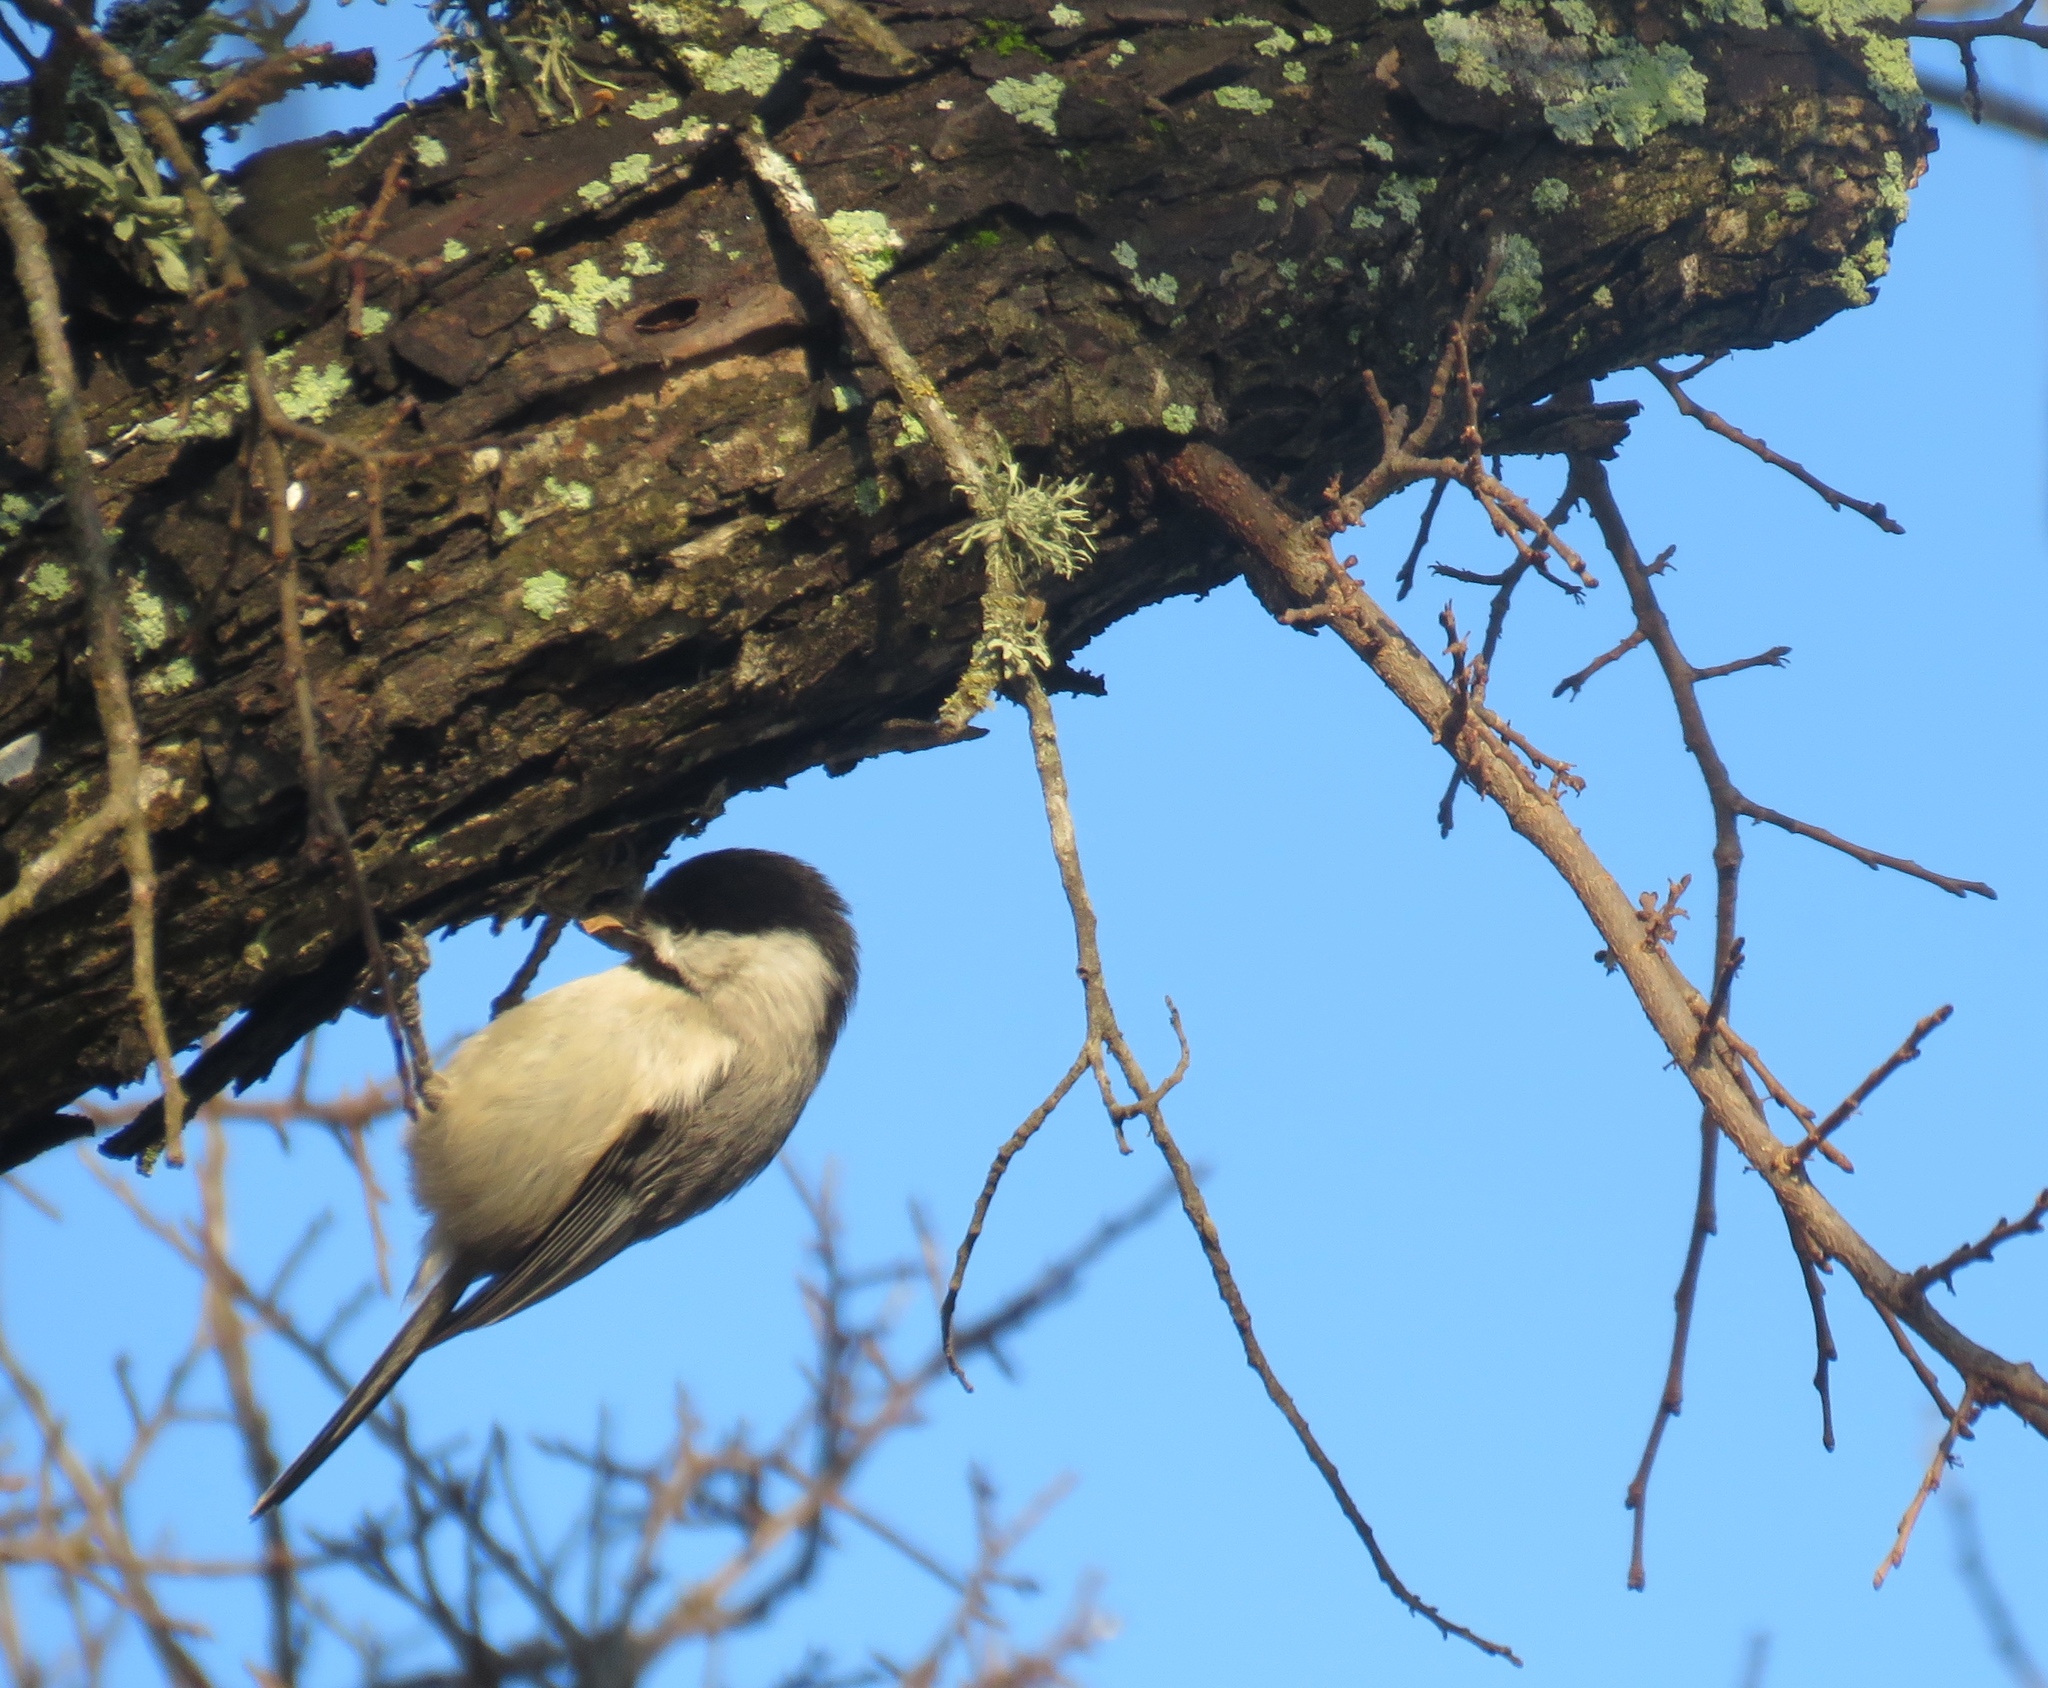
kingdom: Animalia
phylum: Chordata
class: Aves
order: Passeriformes
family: Paridae
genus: Poecile
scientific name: Poecile carolinensis
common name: Carolina chickadee
